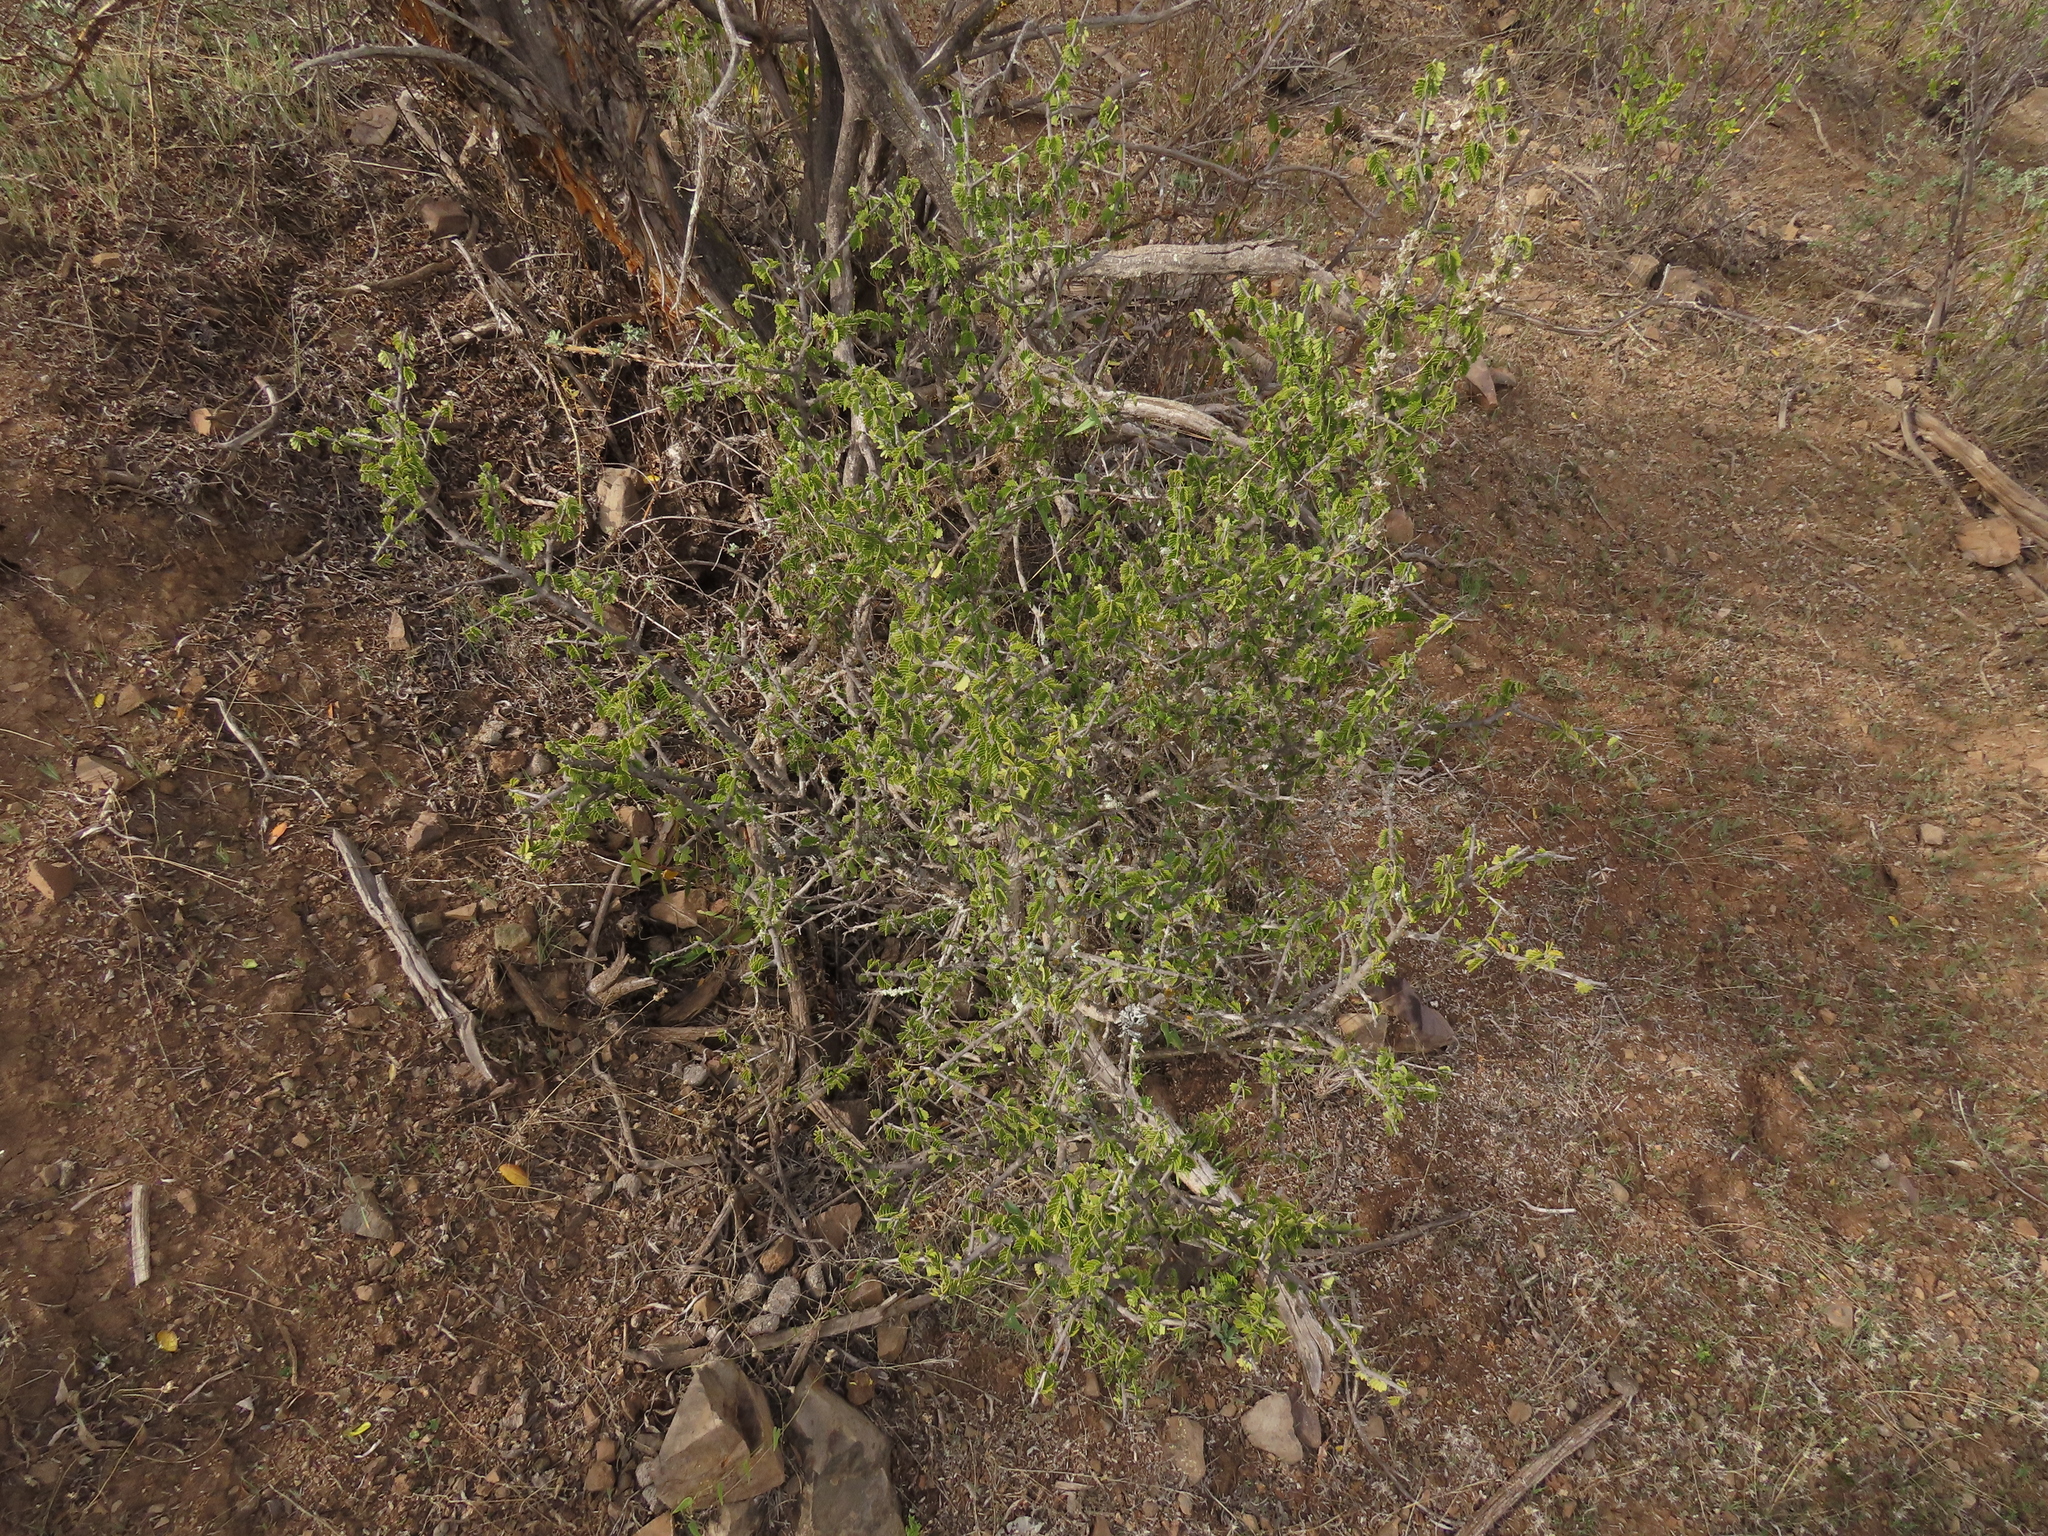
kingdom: Plantae
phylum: Tracheophyta
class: Magnoliopsida
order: Zygophyllales
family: Zygophyllaceae
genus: Porlieria
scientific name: Porlieria chilensis
